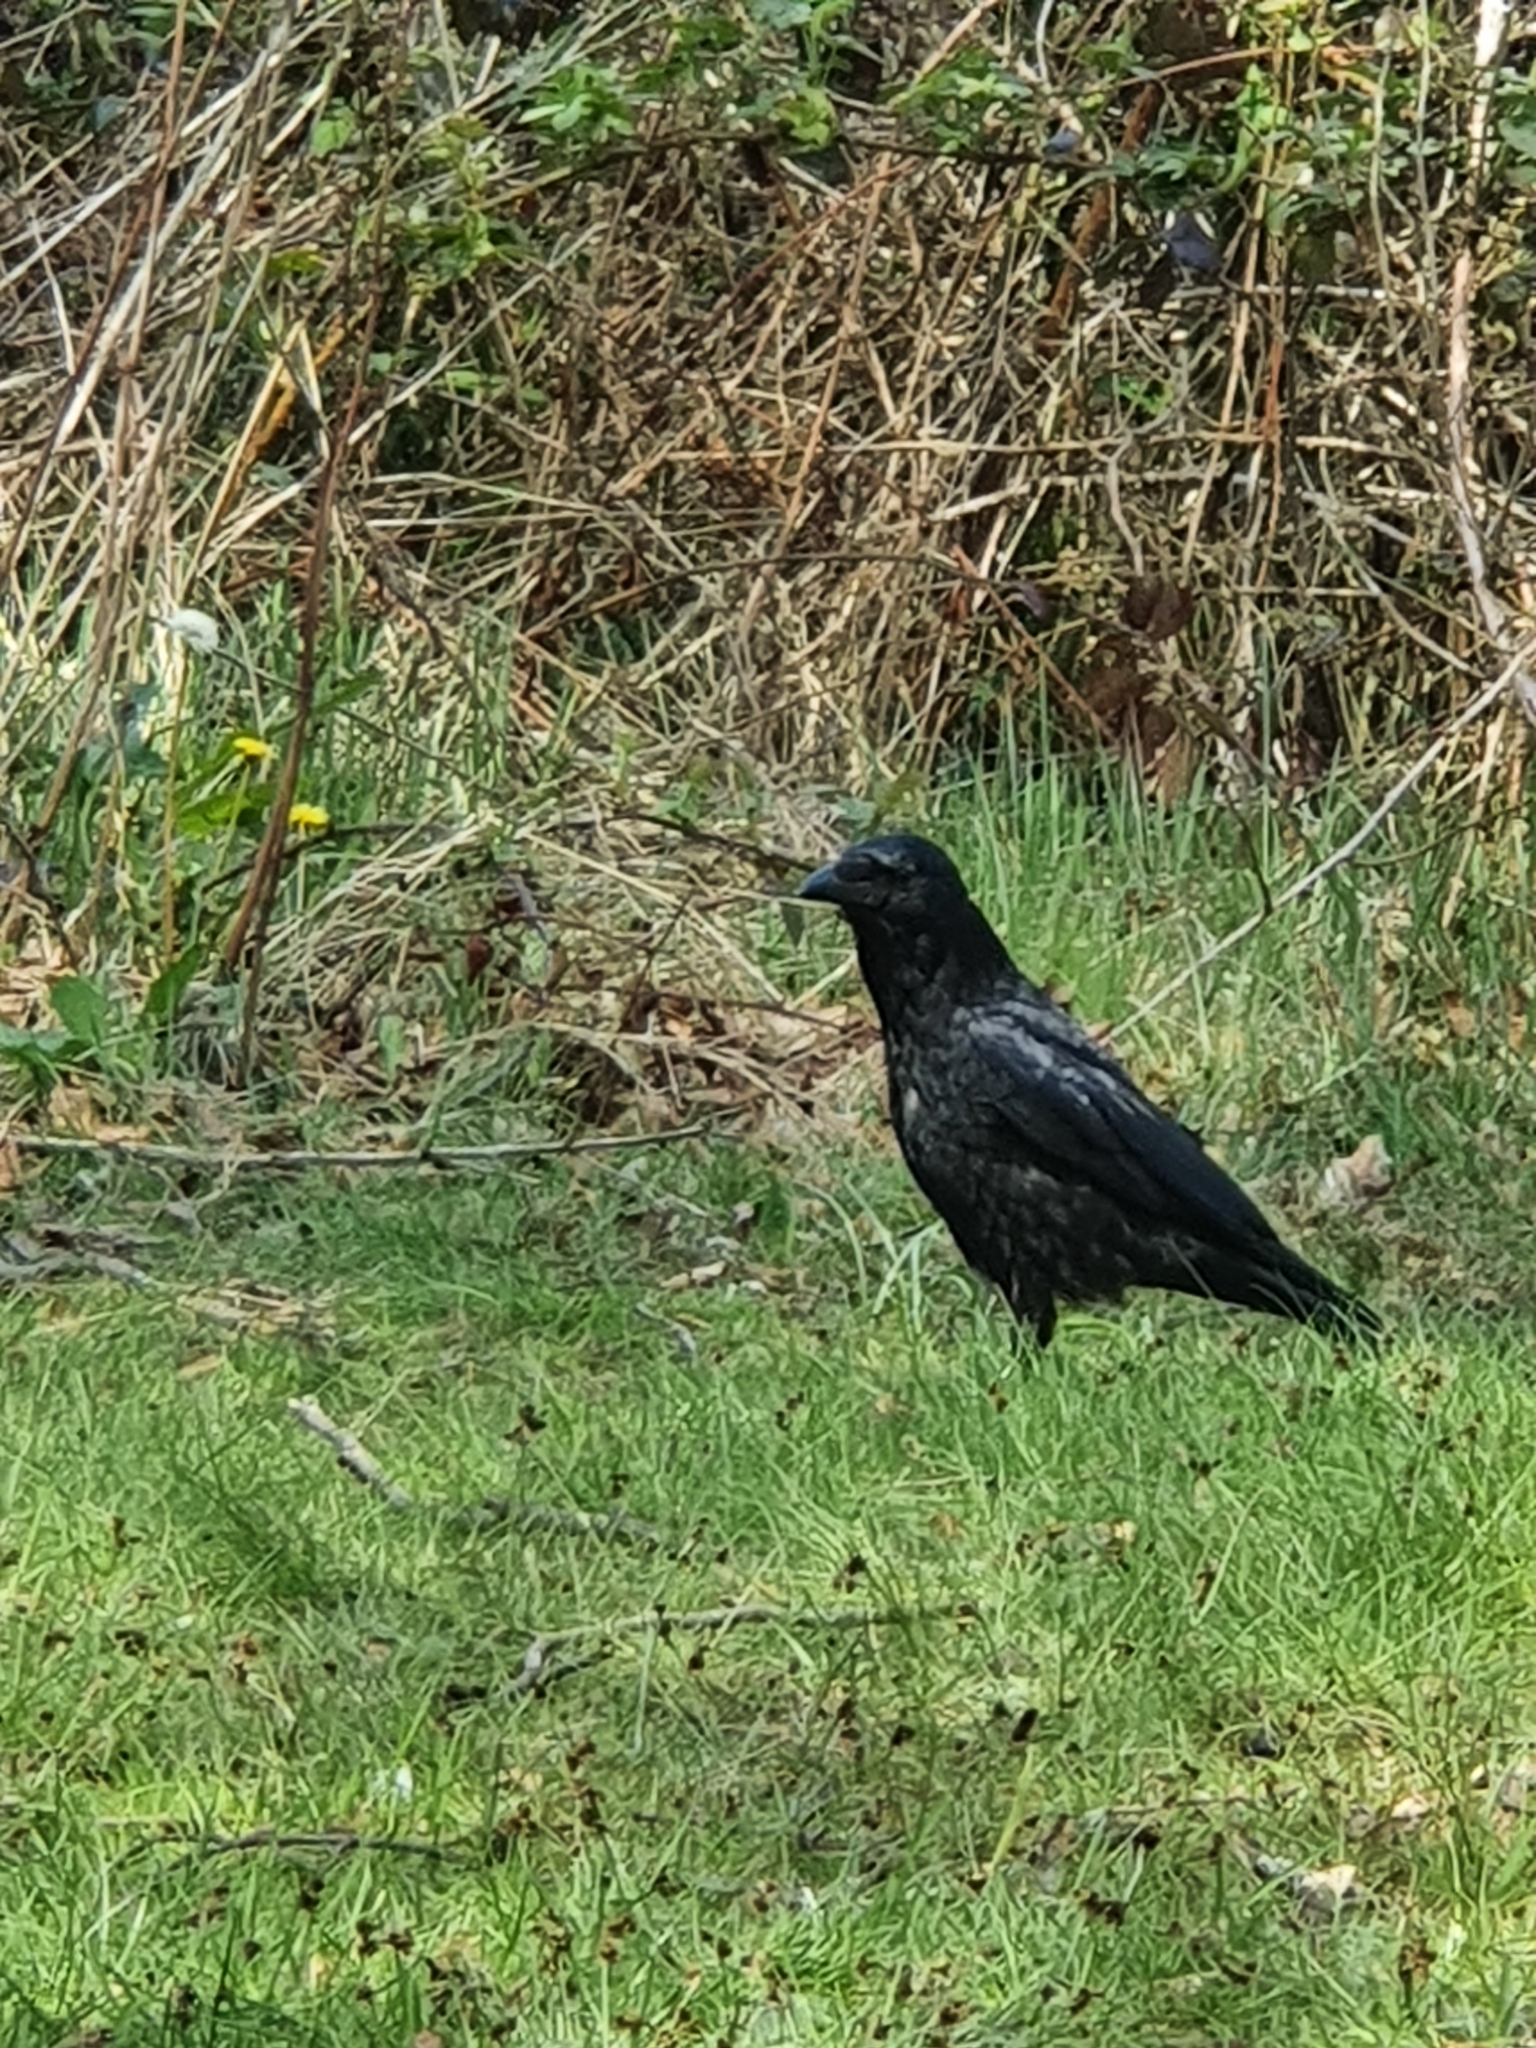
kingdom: Animalia
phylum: Chordata
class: Aves
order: Passeriformes
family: Corvidae
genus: Corvus
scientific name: Corvus corone
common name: Carrion crow
